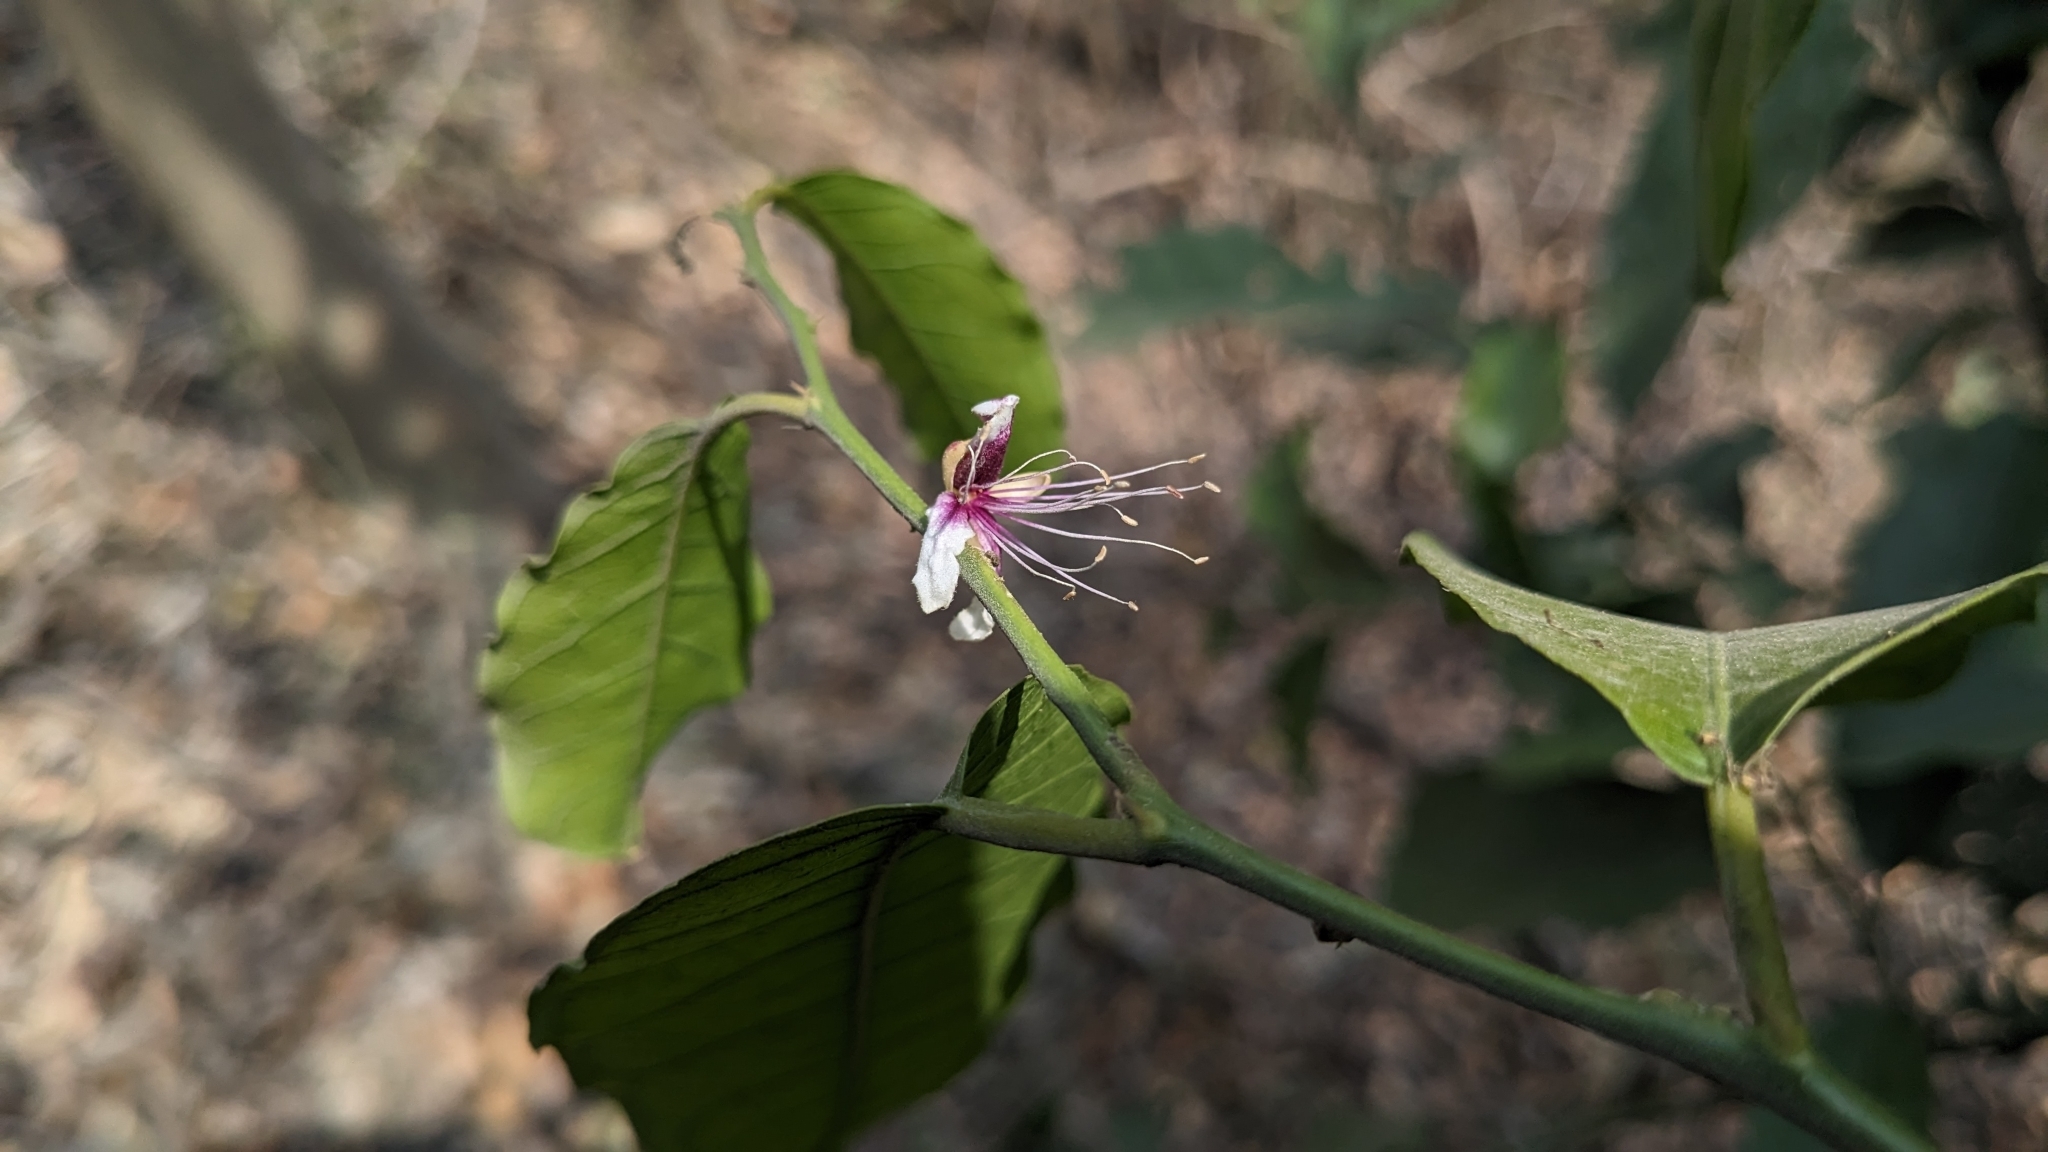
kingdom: Plantae
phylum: Tracheophyta
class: Magnoliopsida
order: Brassicales
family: Capparaceae
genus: Capparis
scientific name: Capparis micracantha
